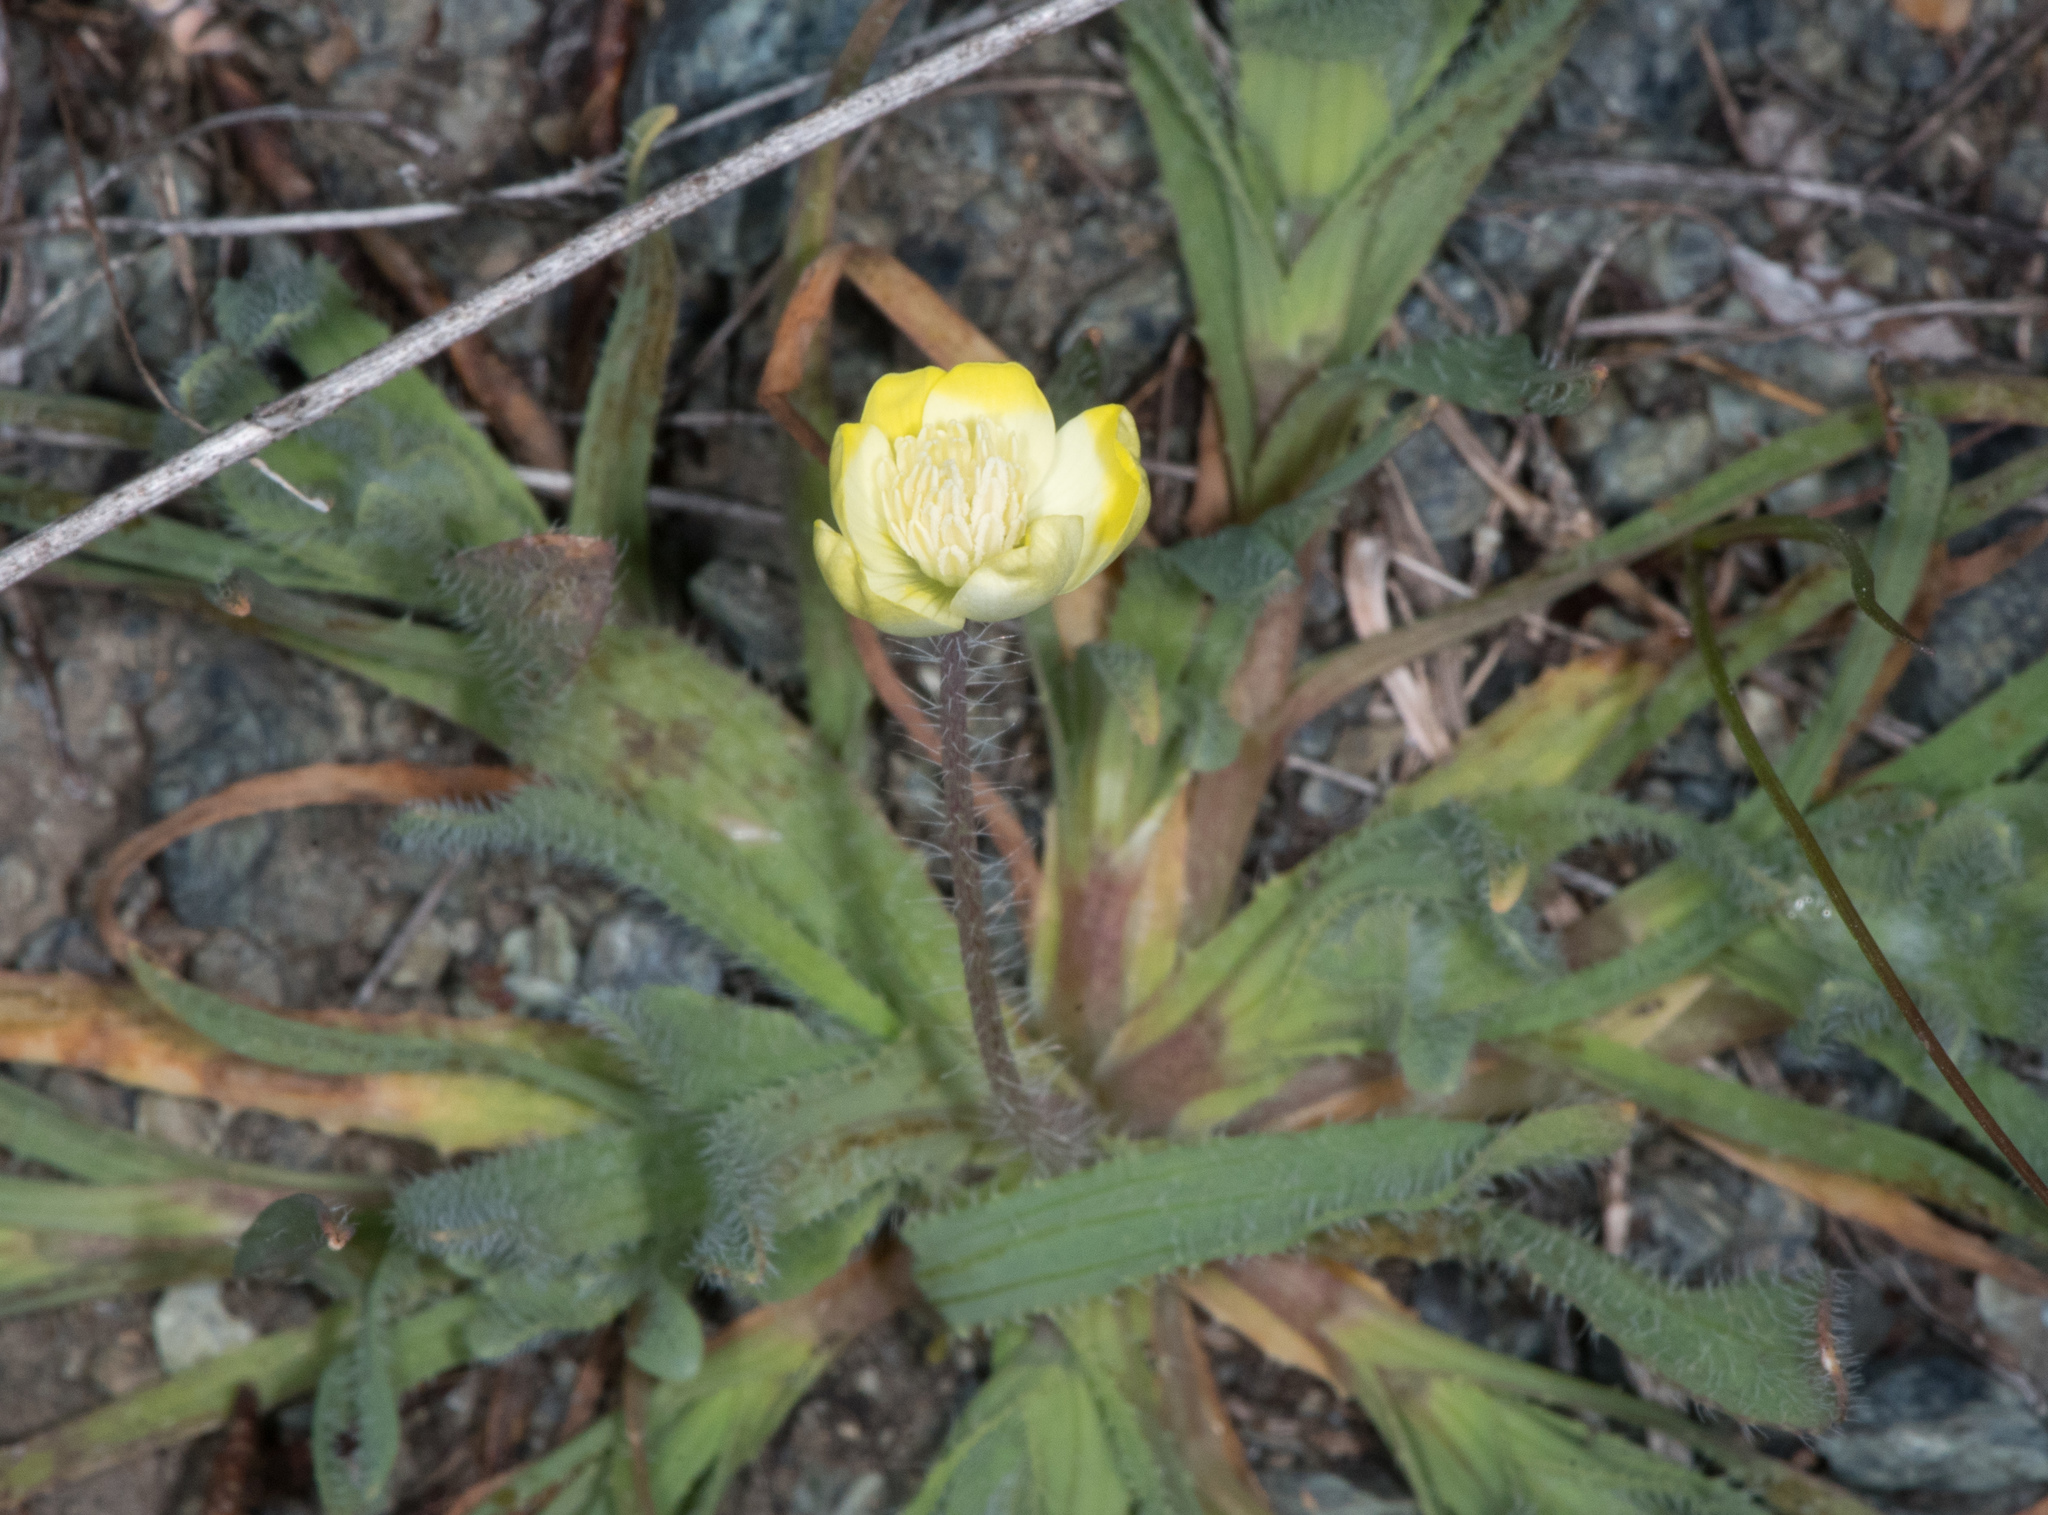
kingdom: Plantae
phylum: Tracheophyta
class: Magnoliopsida
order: Ranunculales
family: Papaveraceae
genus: Platystemon
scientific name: Platystemon californicus
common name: Cream-cups
